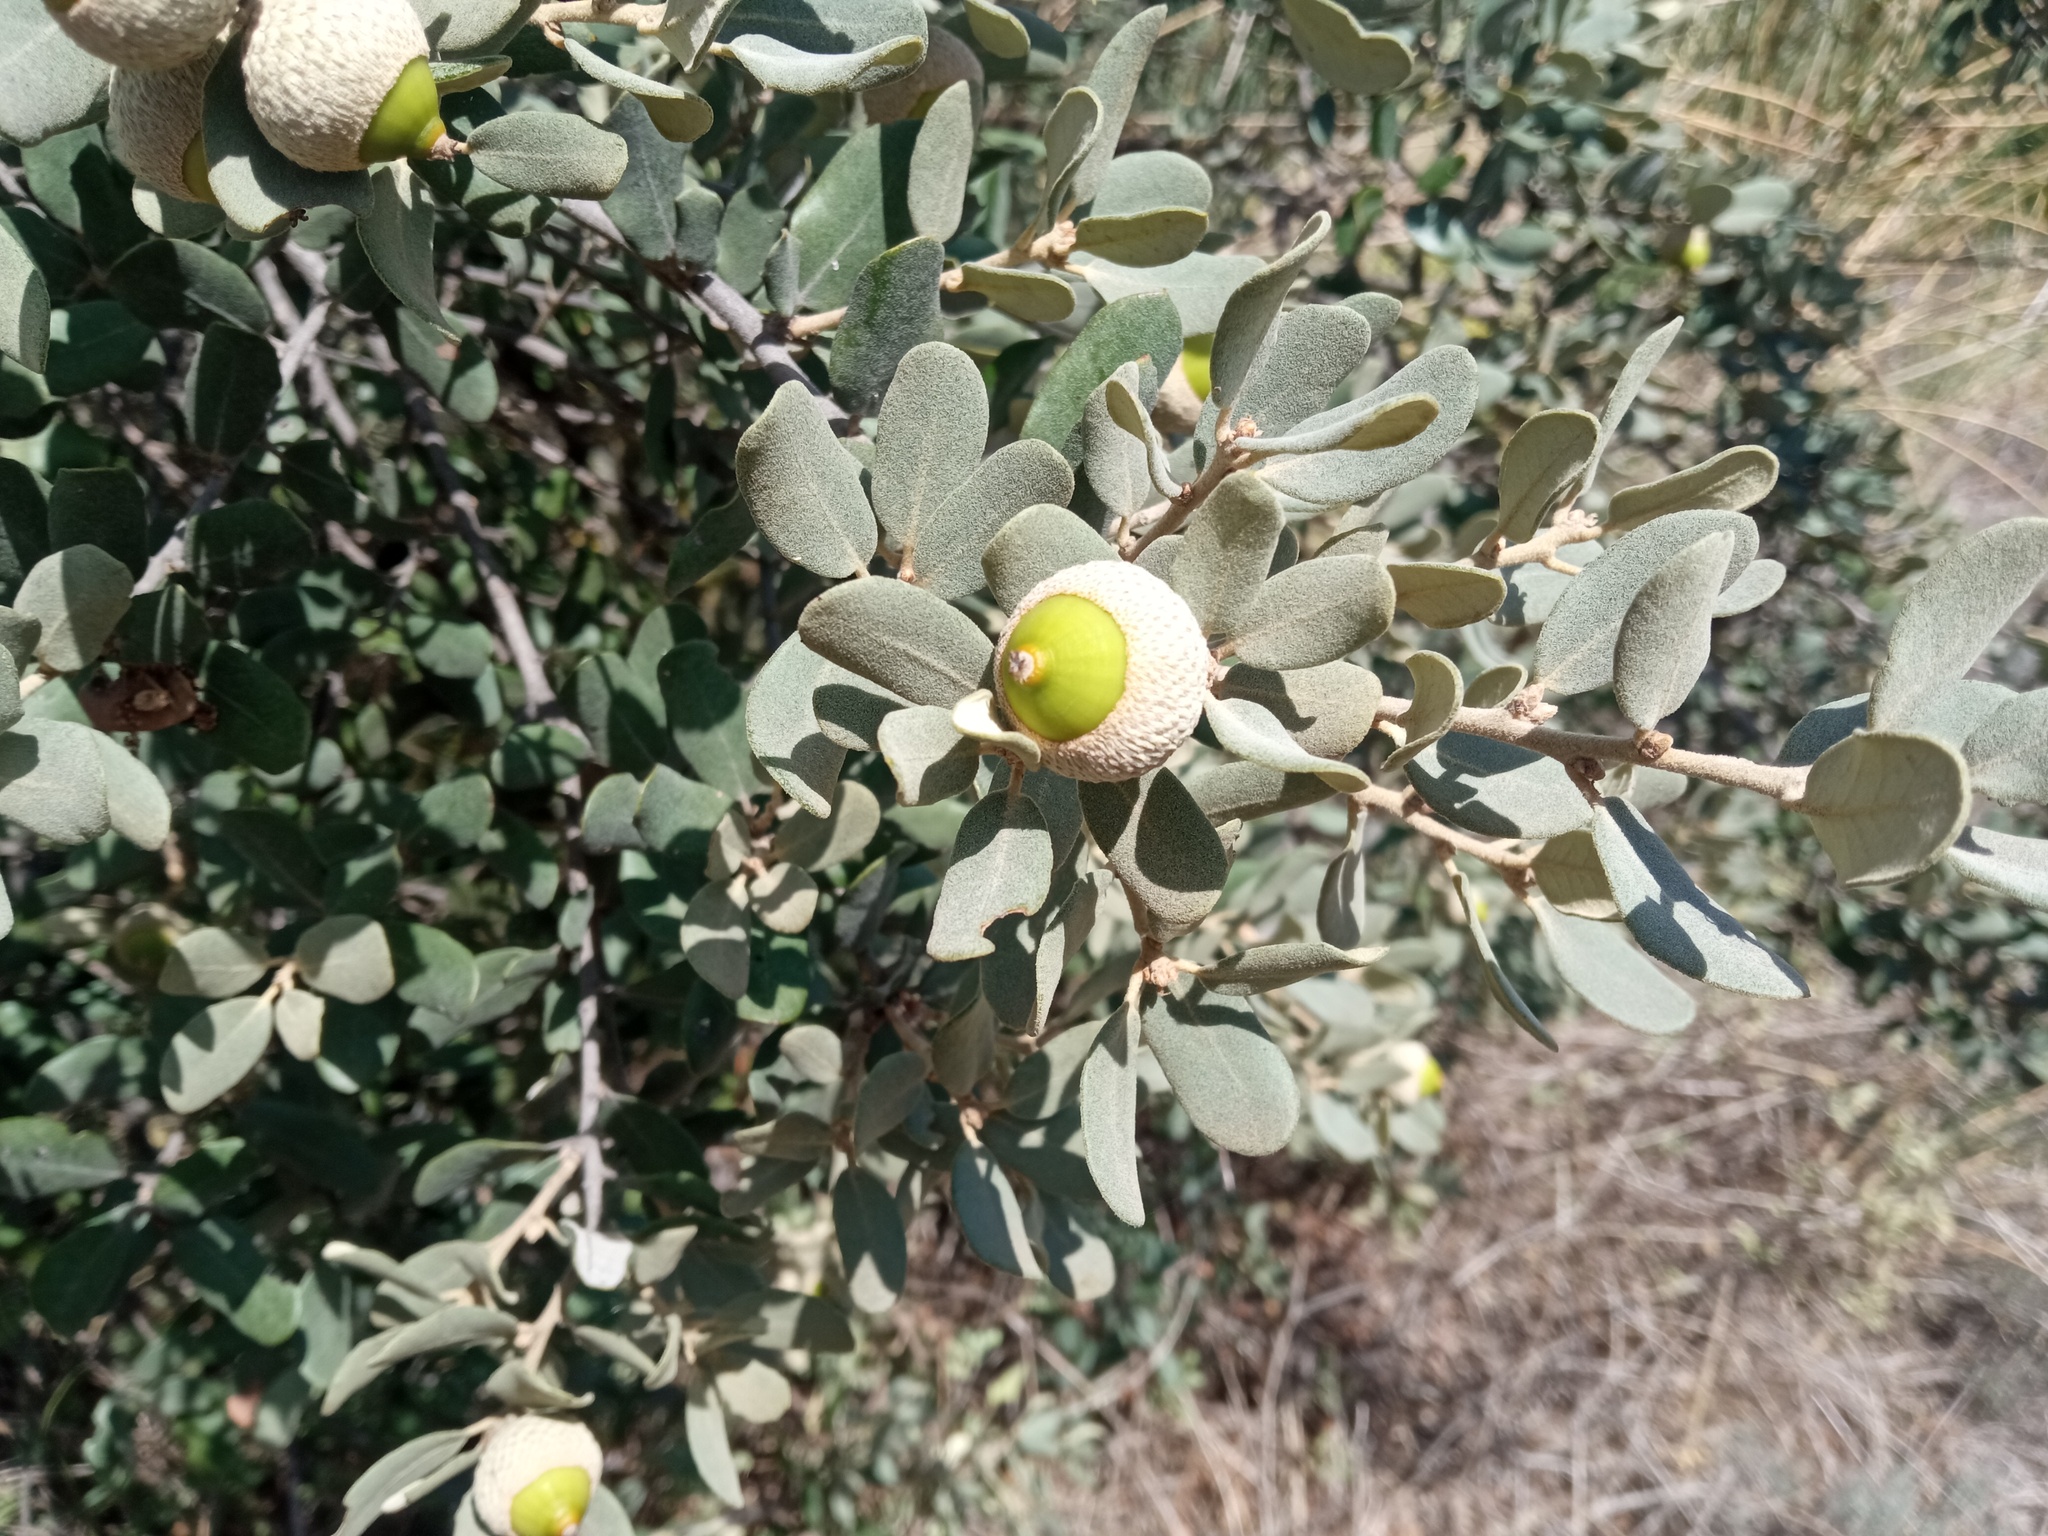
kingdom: Plantae
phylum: Tracheophyta
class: Magnoliopsida
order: Fagales
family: Fagaceae
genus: Quercus
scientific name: Quercus rotundifolia
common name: Holm oak
